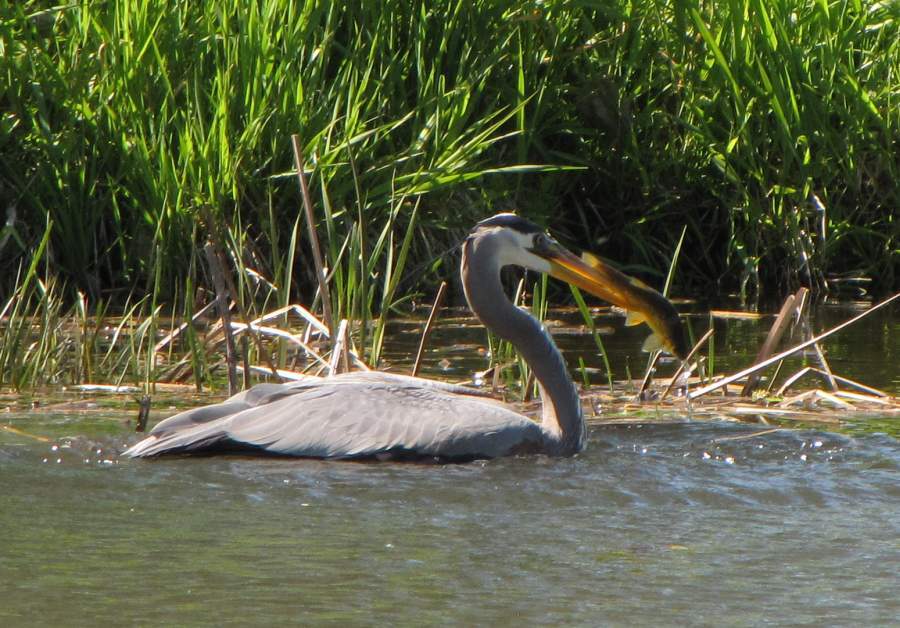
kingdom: Animalia
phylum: Chordata
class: Aves
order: Pelecaniformes
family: Ardeidae
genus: Ardea
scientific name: Ardea herodias
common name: Great blue heron
